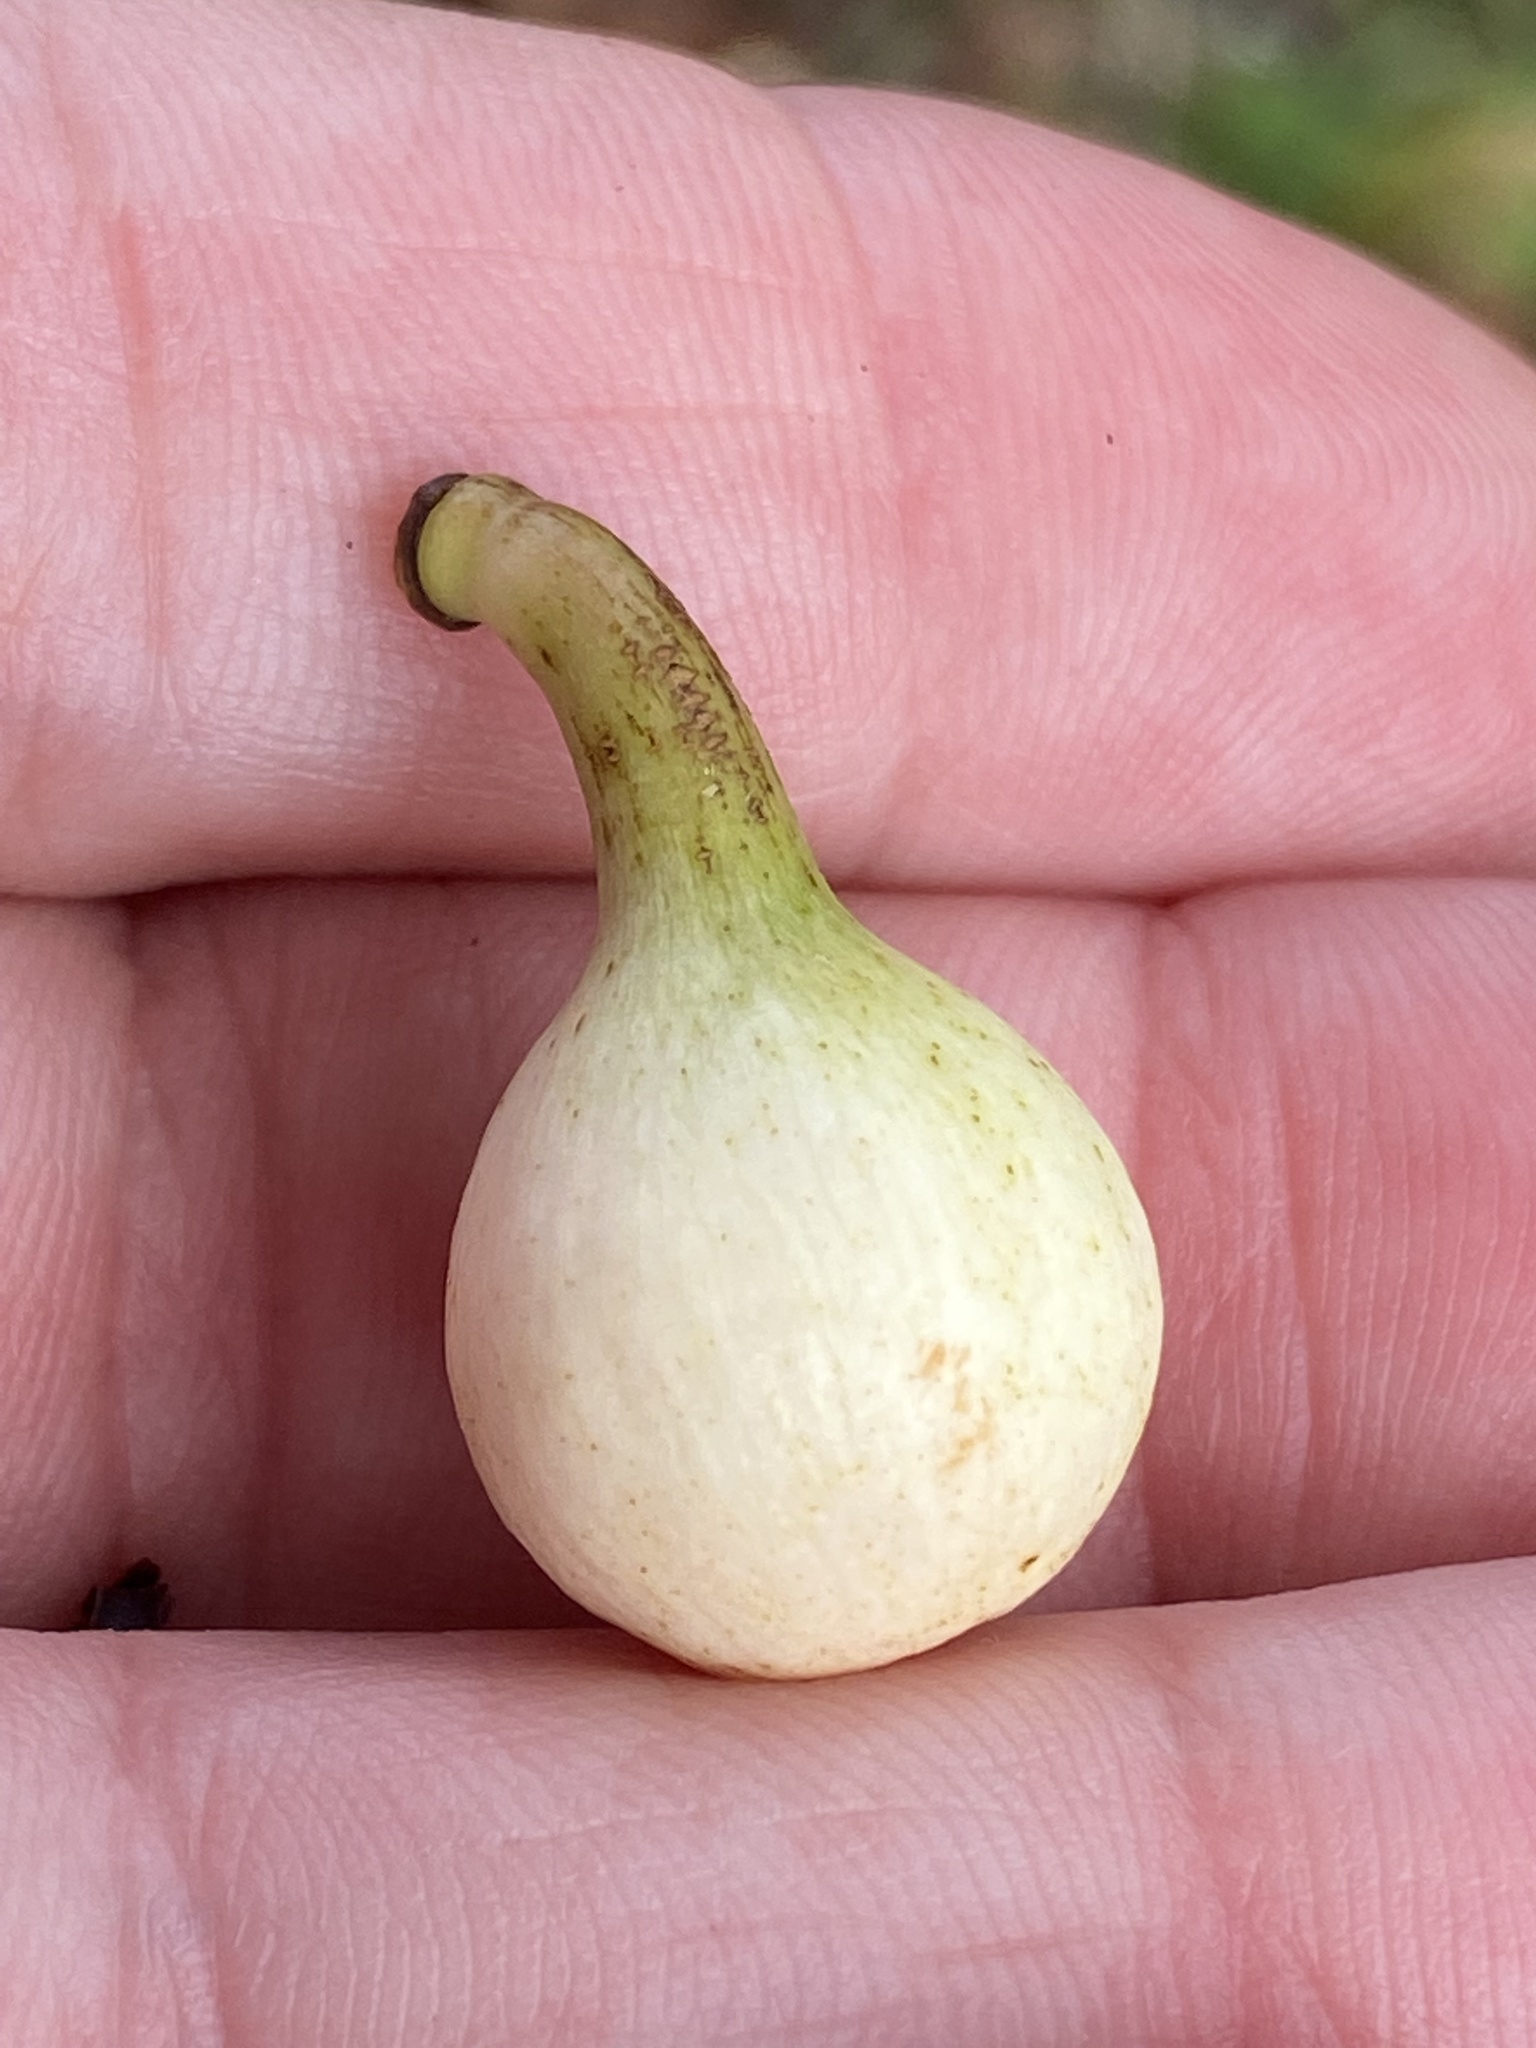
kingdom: Plantae
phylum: Tracheophyta
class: Magnoliopsida
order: Malpighiales
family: Calophyllaceae
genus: Mammea
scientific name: Mammea americana
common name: Mamey
